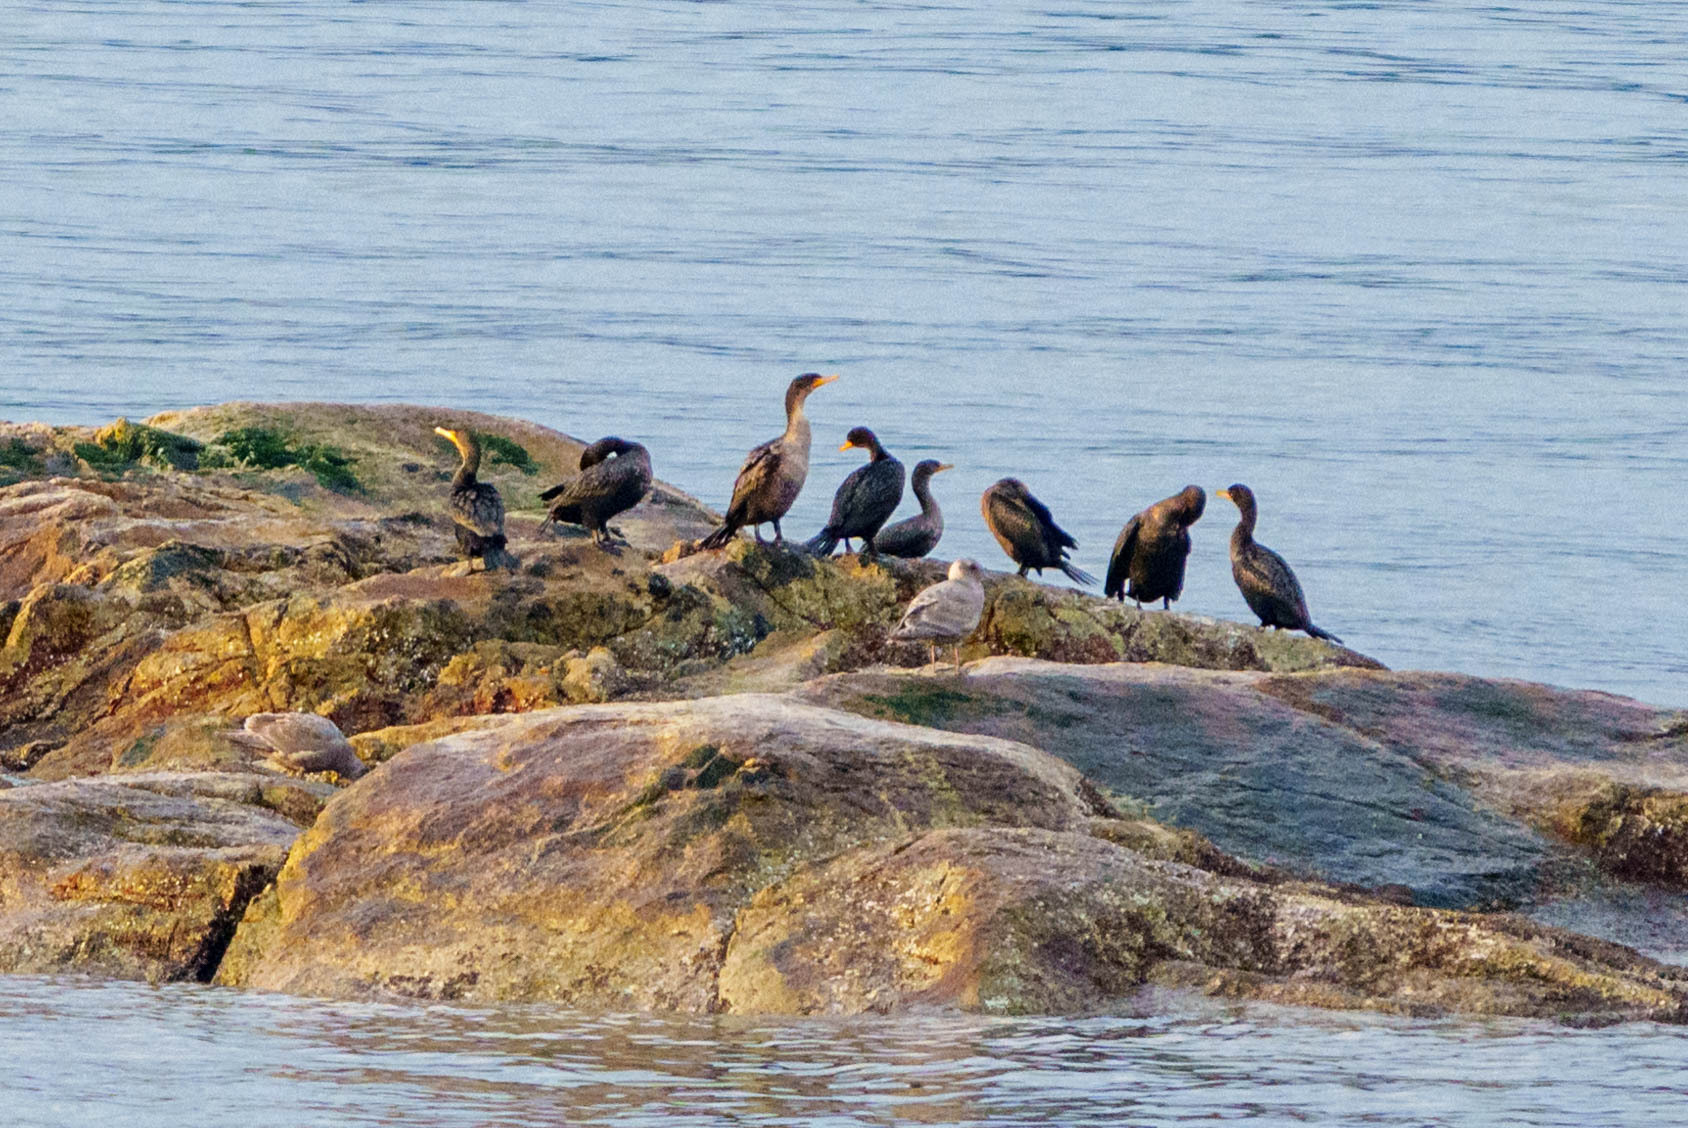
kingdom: Animalia
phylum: Chordata
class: Aves
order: Suliformes
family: Phalacrocoracidae
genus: Phalacrocorax
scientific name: Phalacrocorax auritus
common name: Double-crested cormorant
